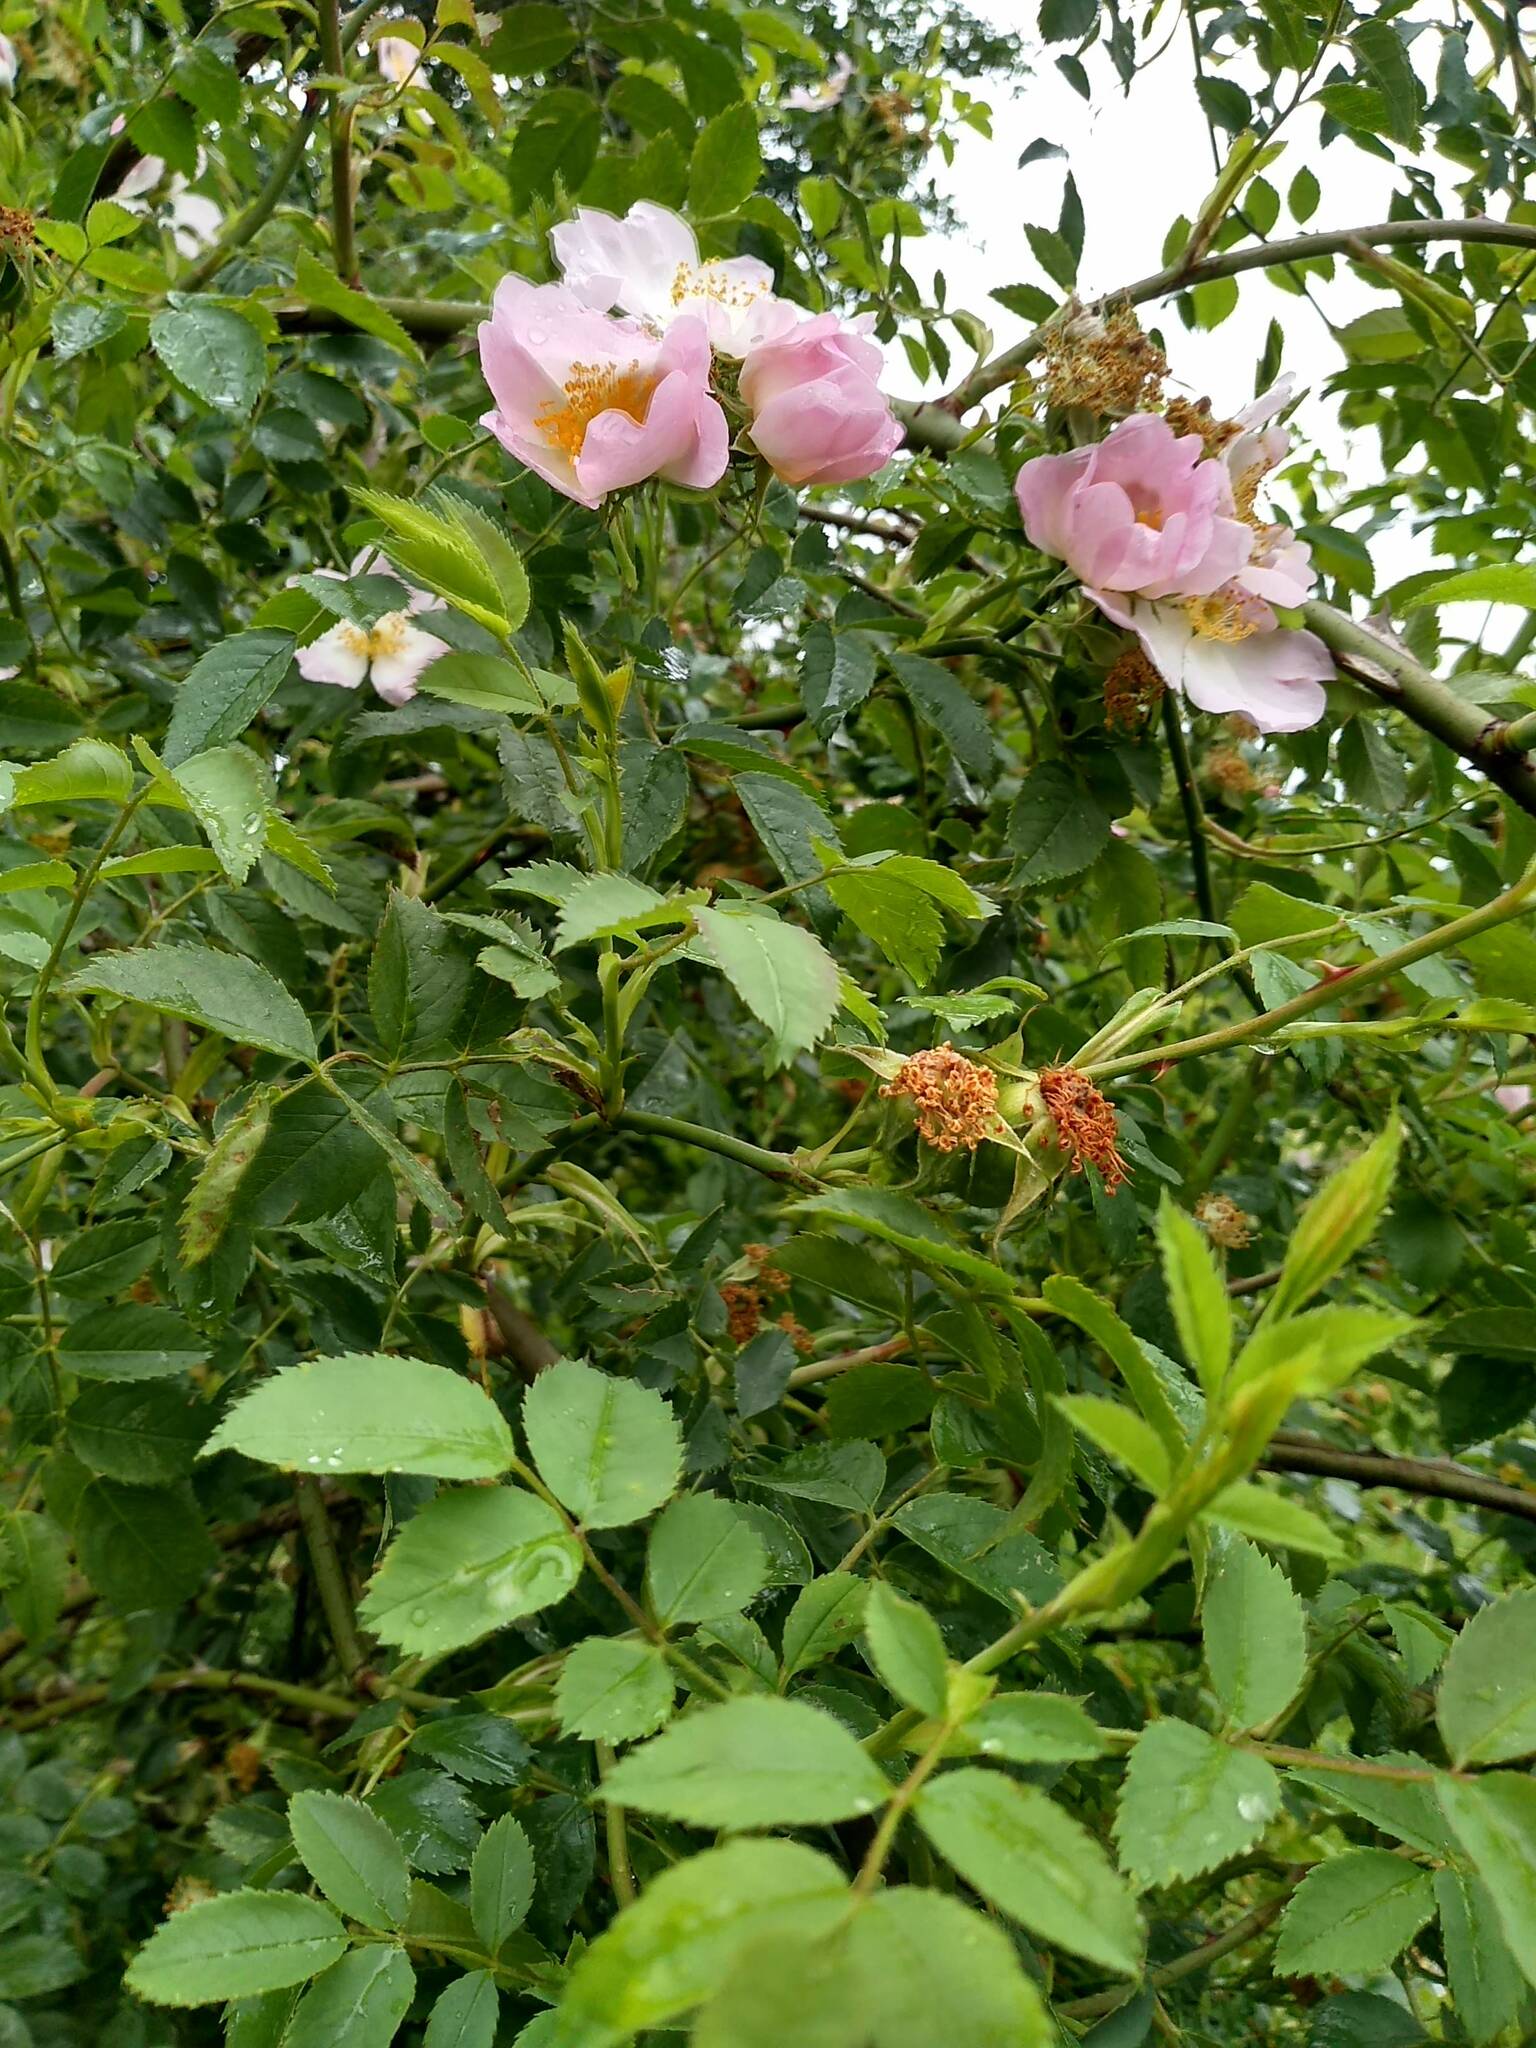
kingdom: Plantae
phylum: Tracheophyta
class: Magnoliopsida
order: Rosales
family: Rosaceae
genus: Rosa
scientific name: Rosa canina
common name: Dog rose
